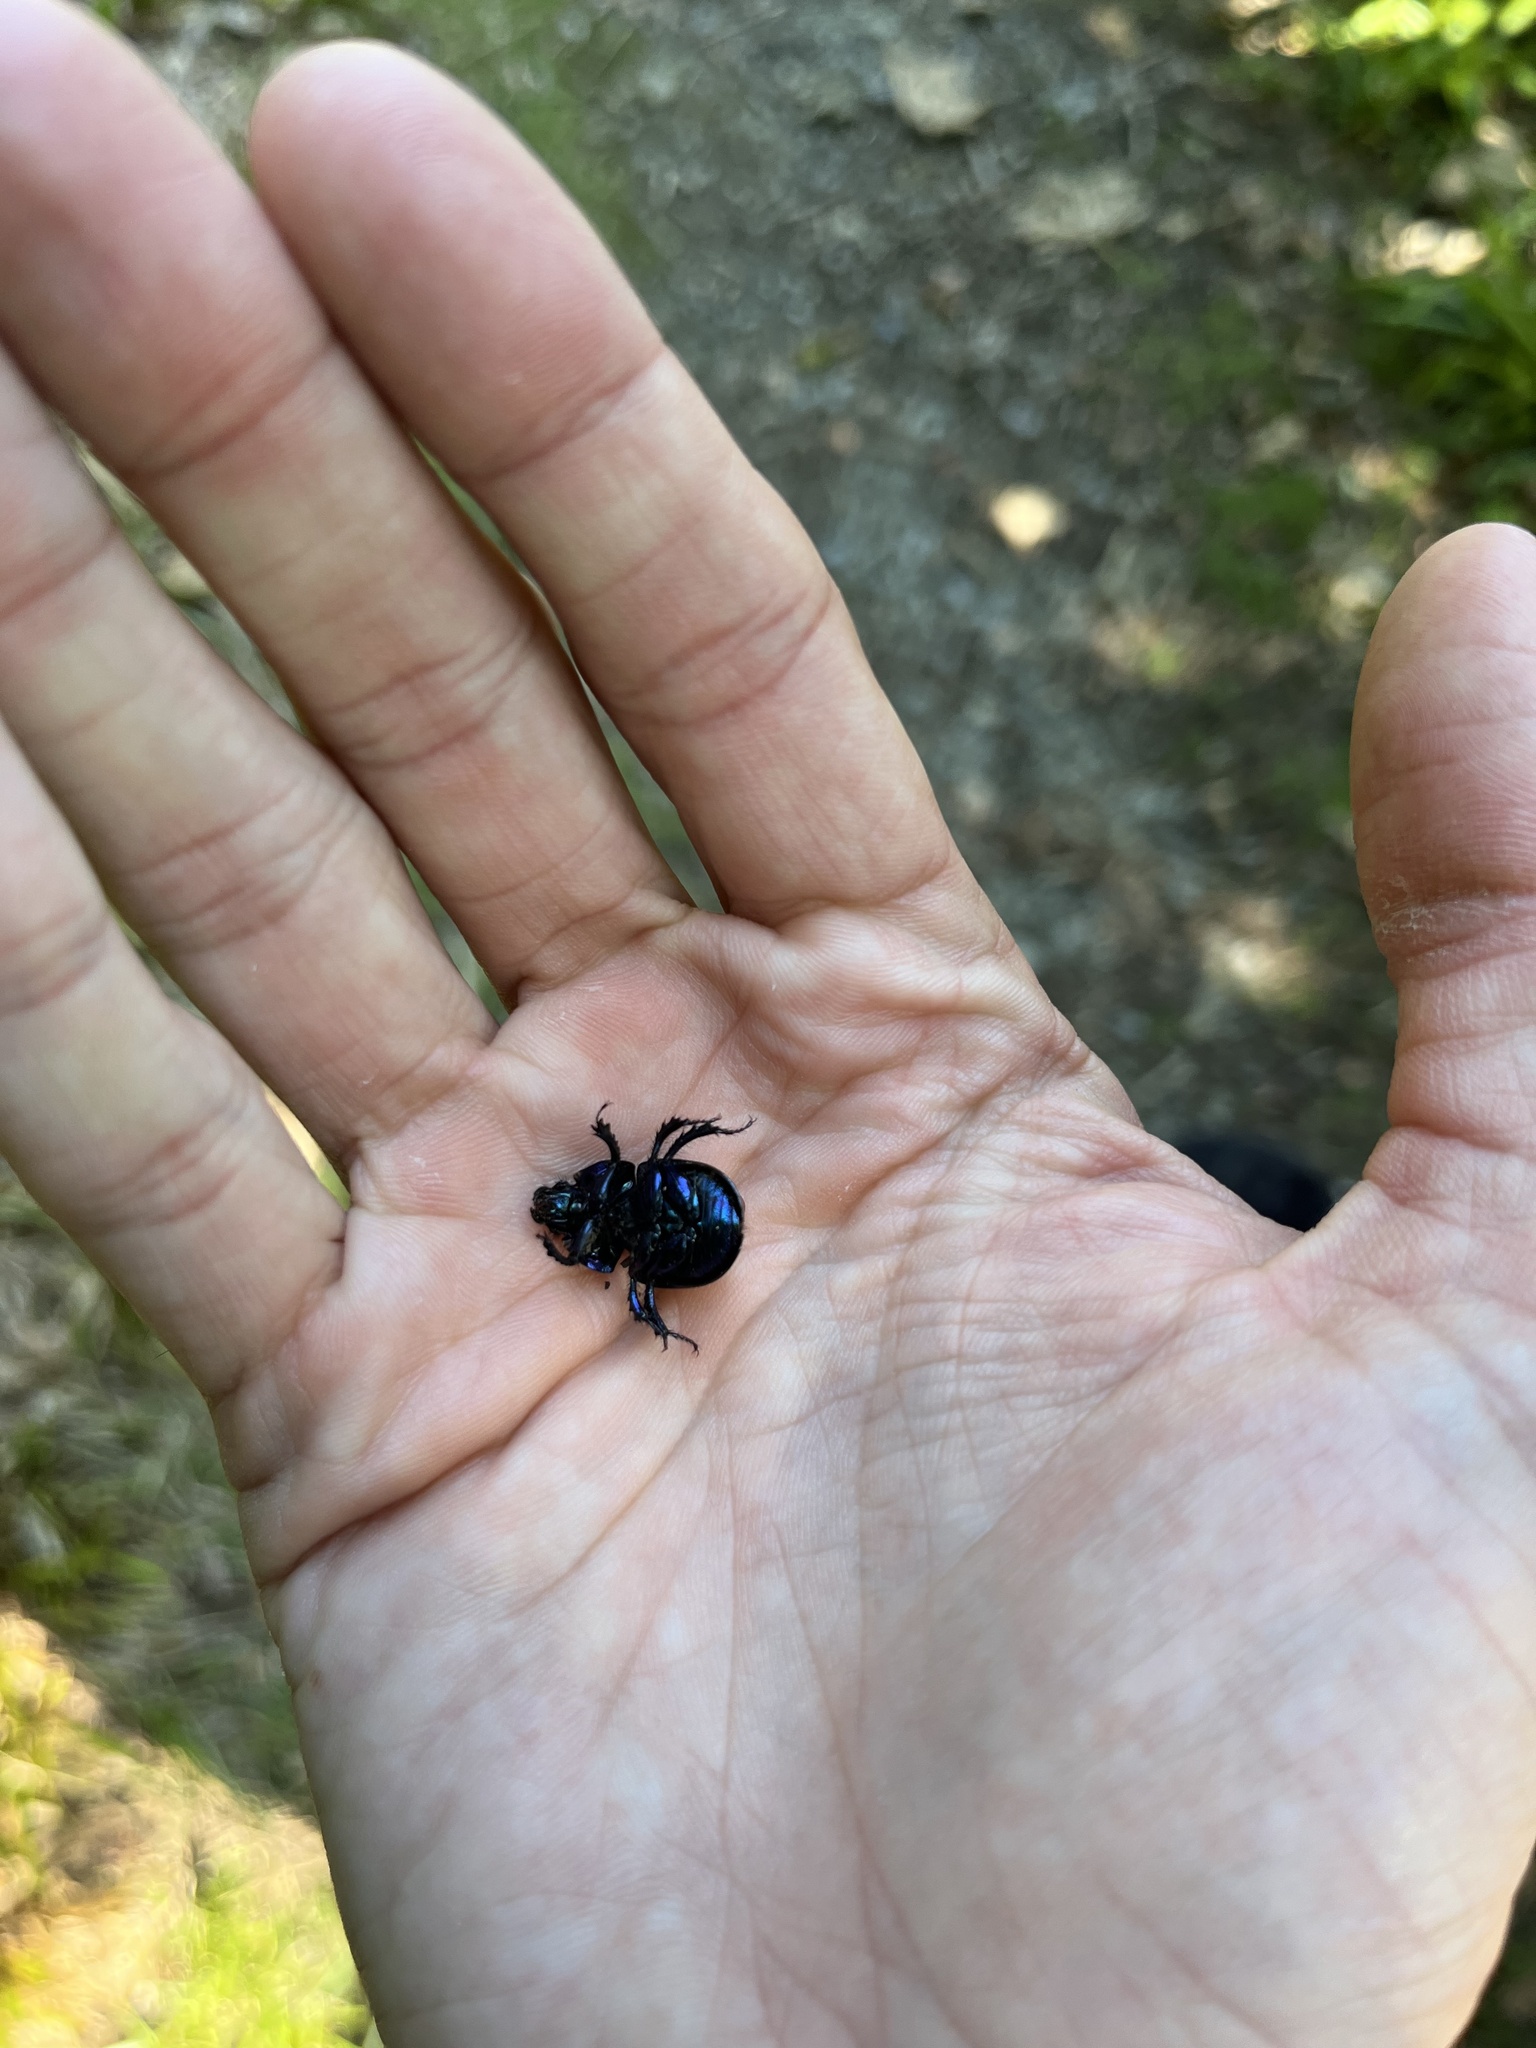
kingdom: Animalia
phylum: Arthropoda
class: Insecta
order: Coleoptera
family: Geotrupidae
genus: Anoplotrupes
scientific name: Anoplotrupes stercorosus
